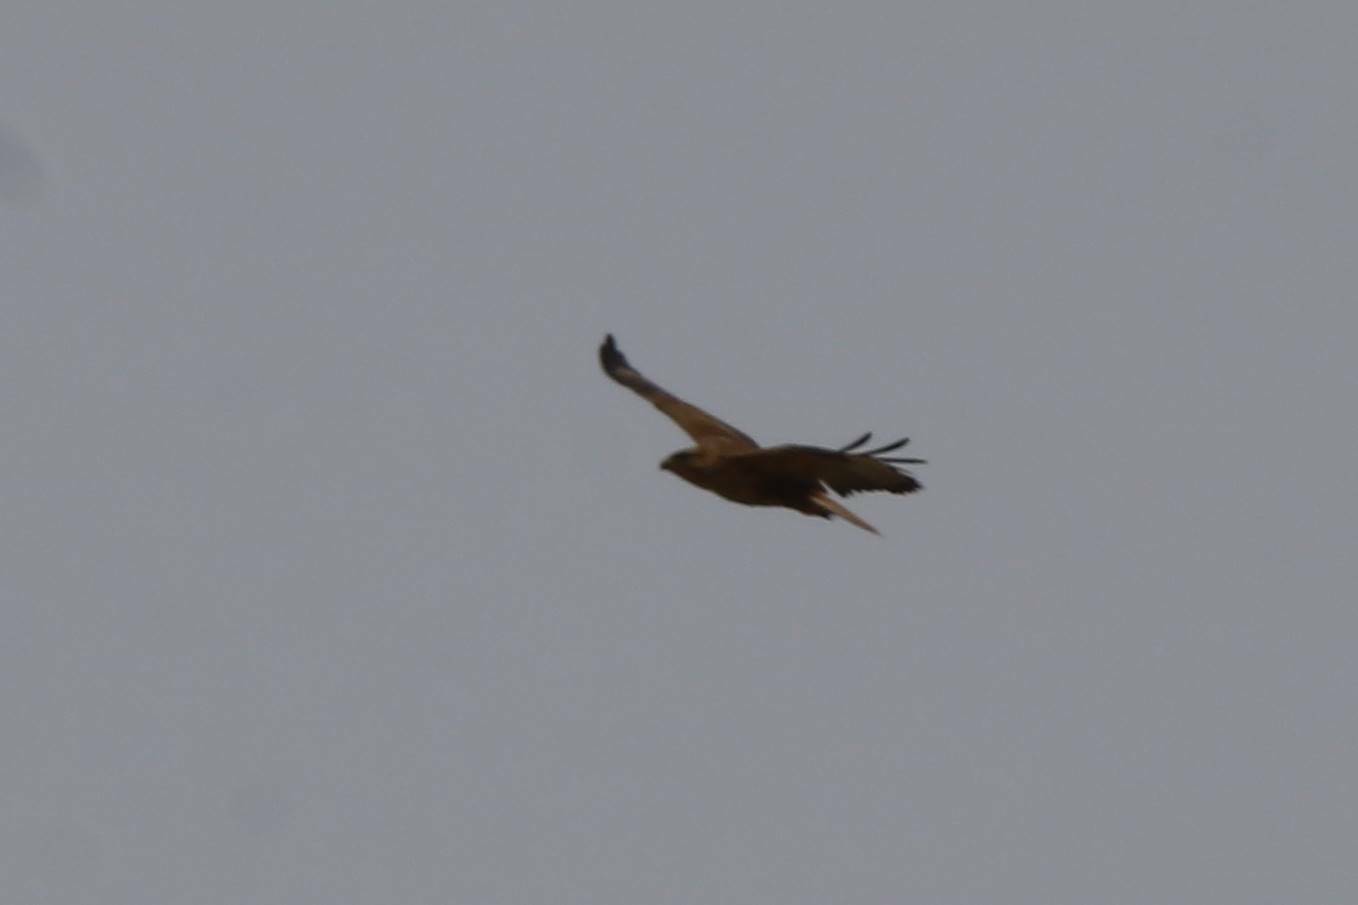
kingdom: Animalia
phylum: Chordata
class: Aves
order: Accipitriformes
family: Accipitridae
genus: Buteo
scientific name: Buteo rufinus
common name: Long-legged buzzard
